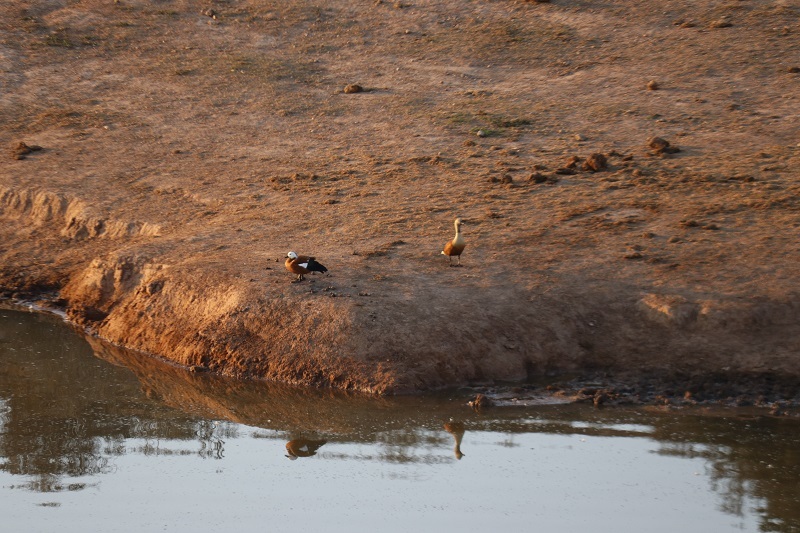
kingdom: Animalia
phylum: Chordata
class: Aves
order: Anseriformes
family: Anatidae
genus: Tadorna
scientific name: Tadorna cana
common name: South african shelduck
